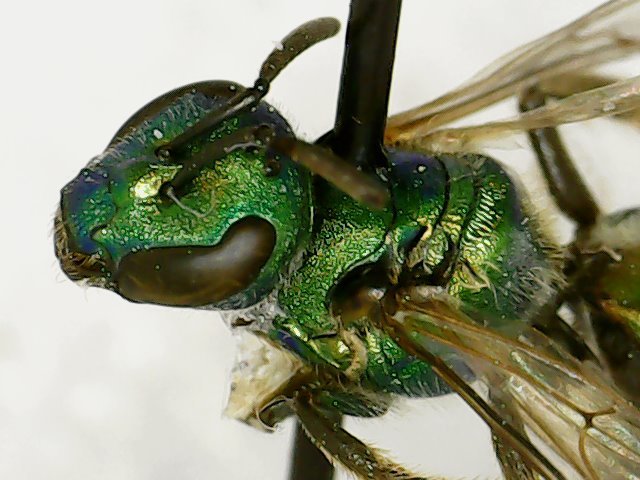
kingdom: Animalia
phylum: Arthropoda
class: Insecta
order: Hymenoptera
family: Halictidae
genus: Augochlora
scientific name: Augochlora pura
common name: Pure green sweat bee
